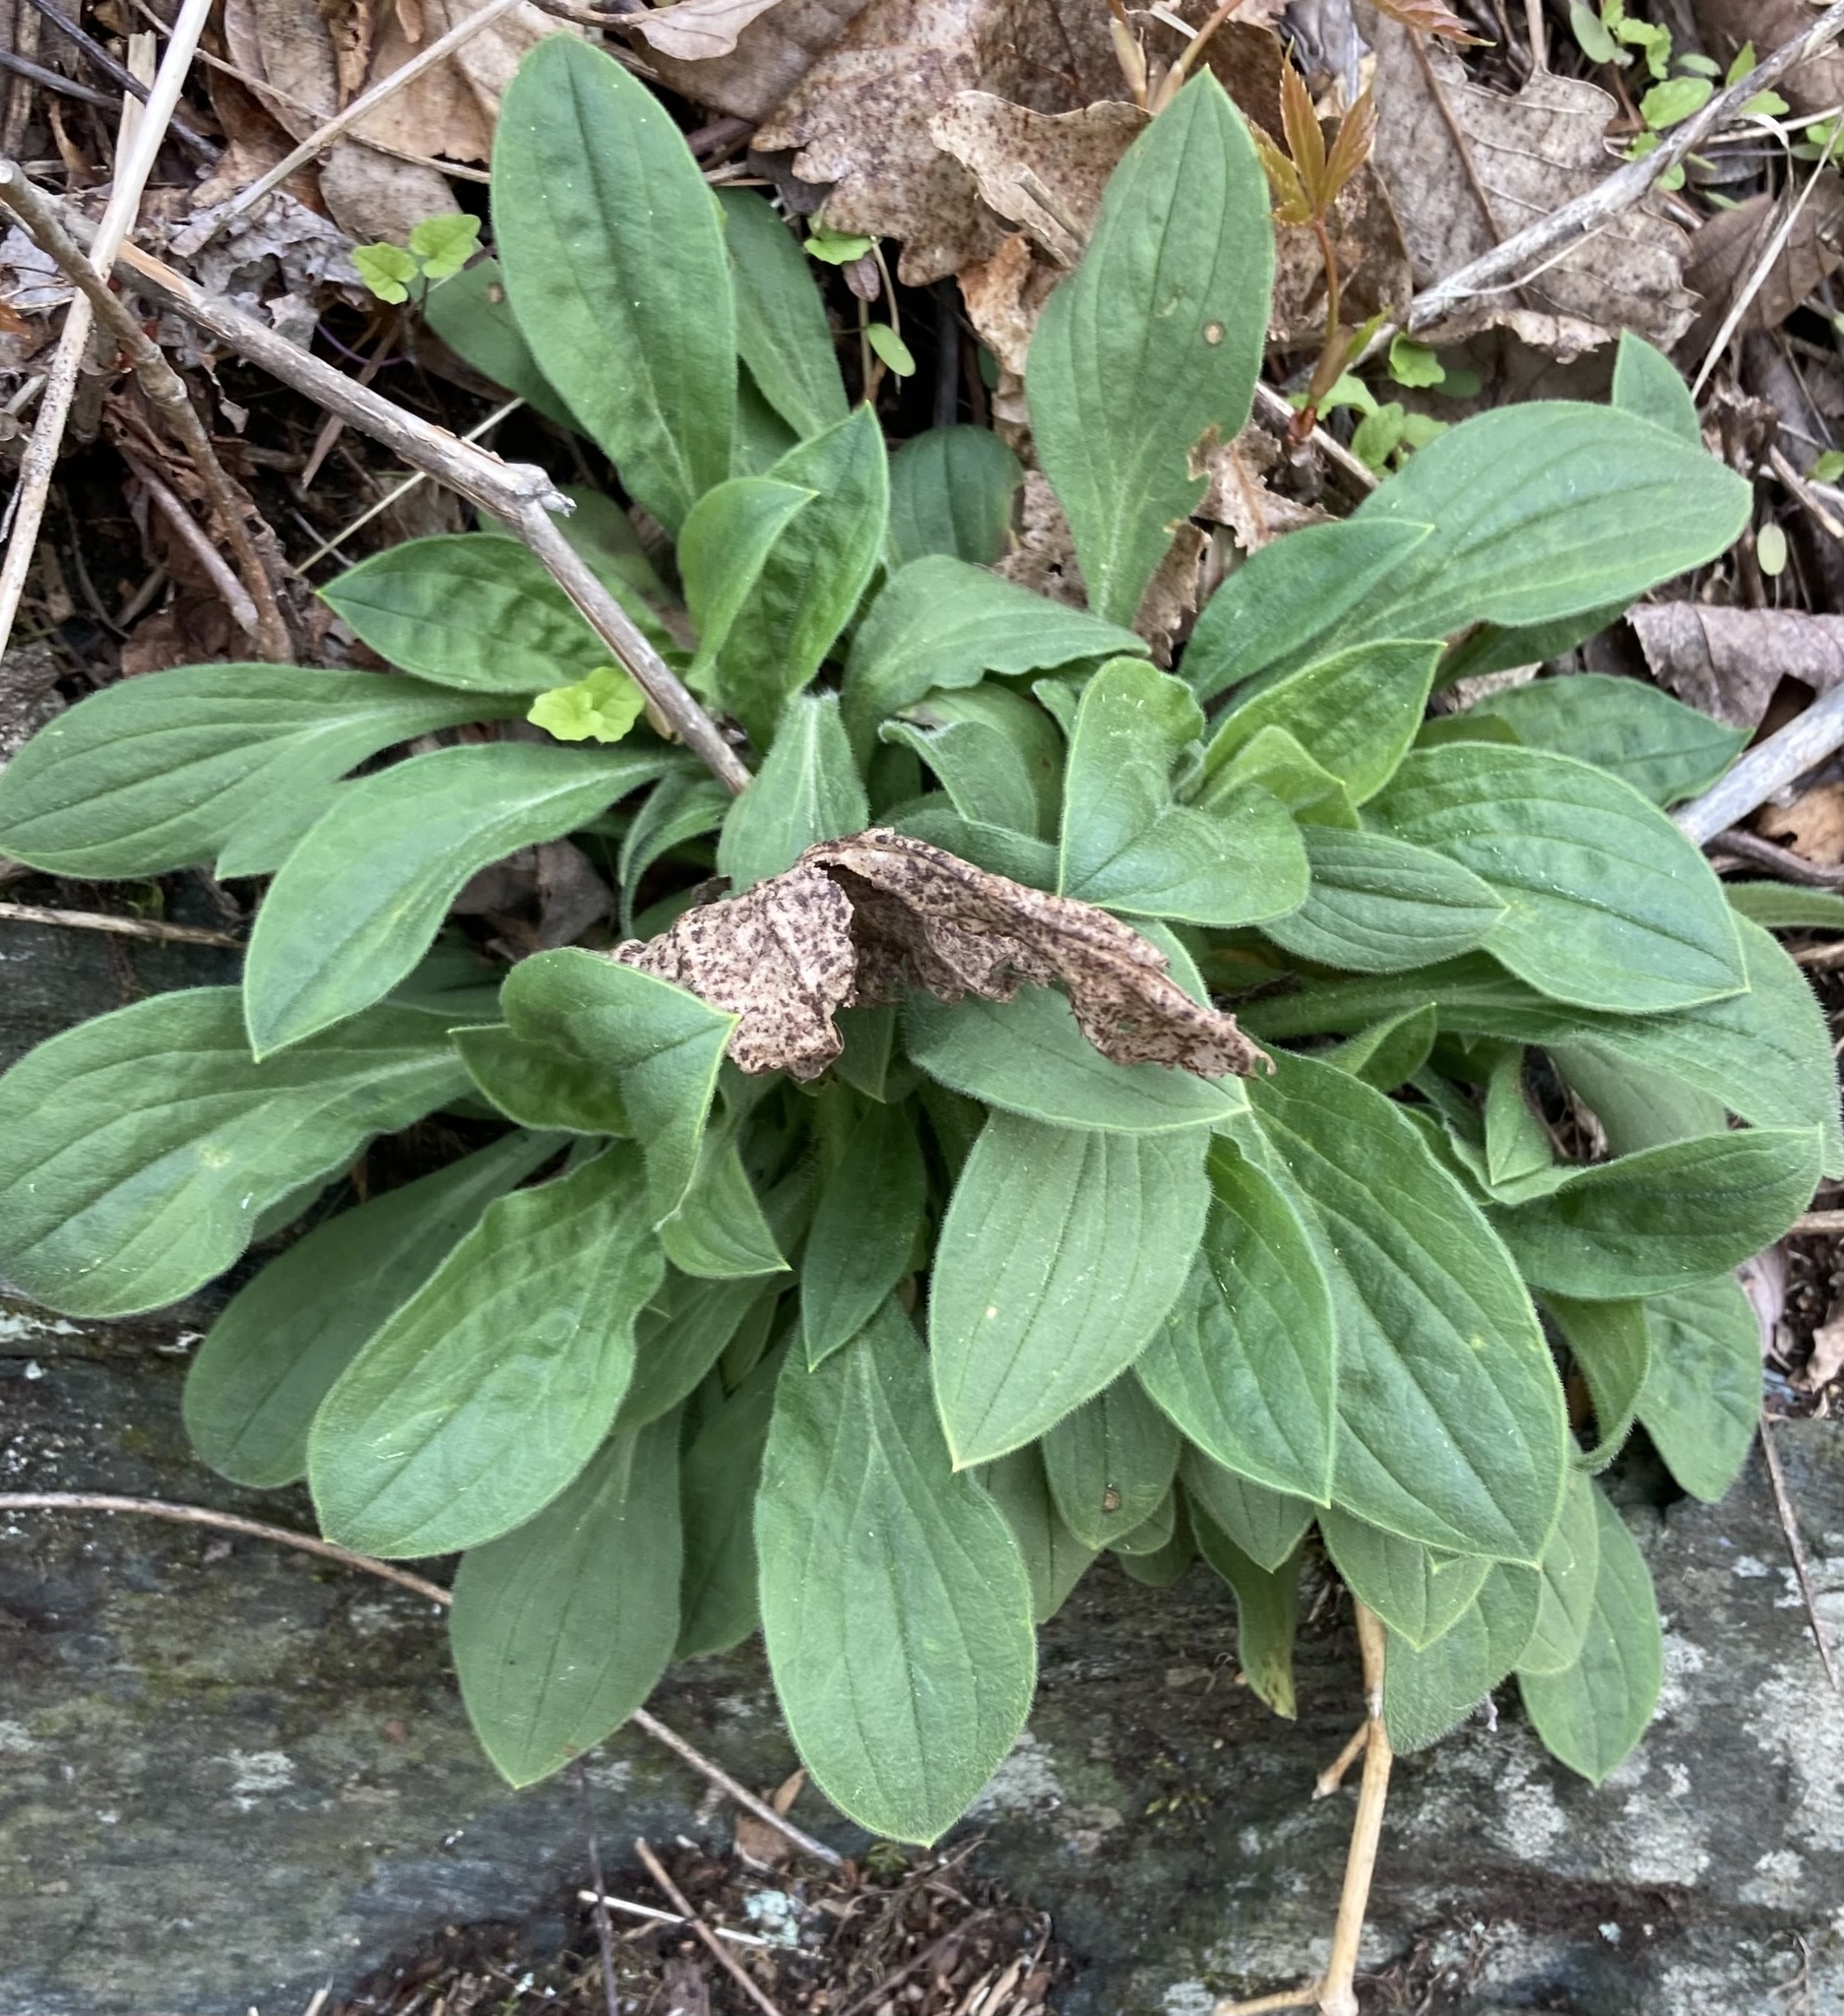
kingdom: Plantae
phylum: Tracheophyta
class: Magnoliopsida
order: Caryophyllales
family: Caryophyllaceae
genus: Silene
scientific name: Silene latifolia
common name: White campion
